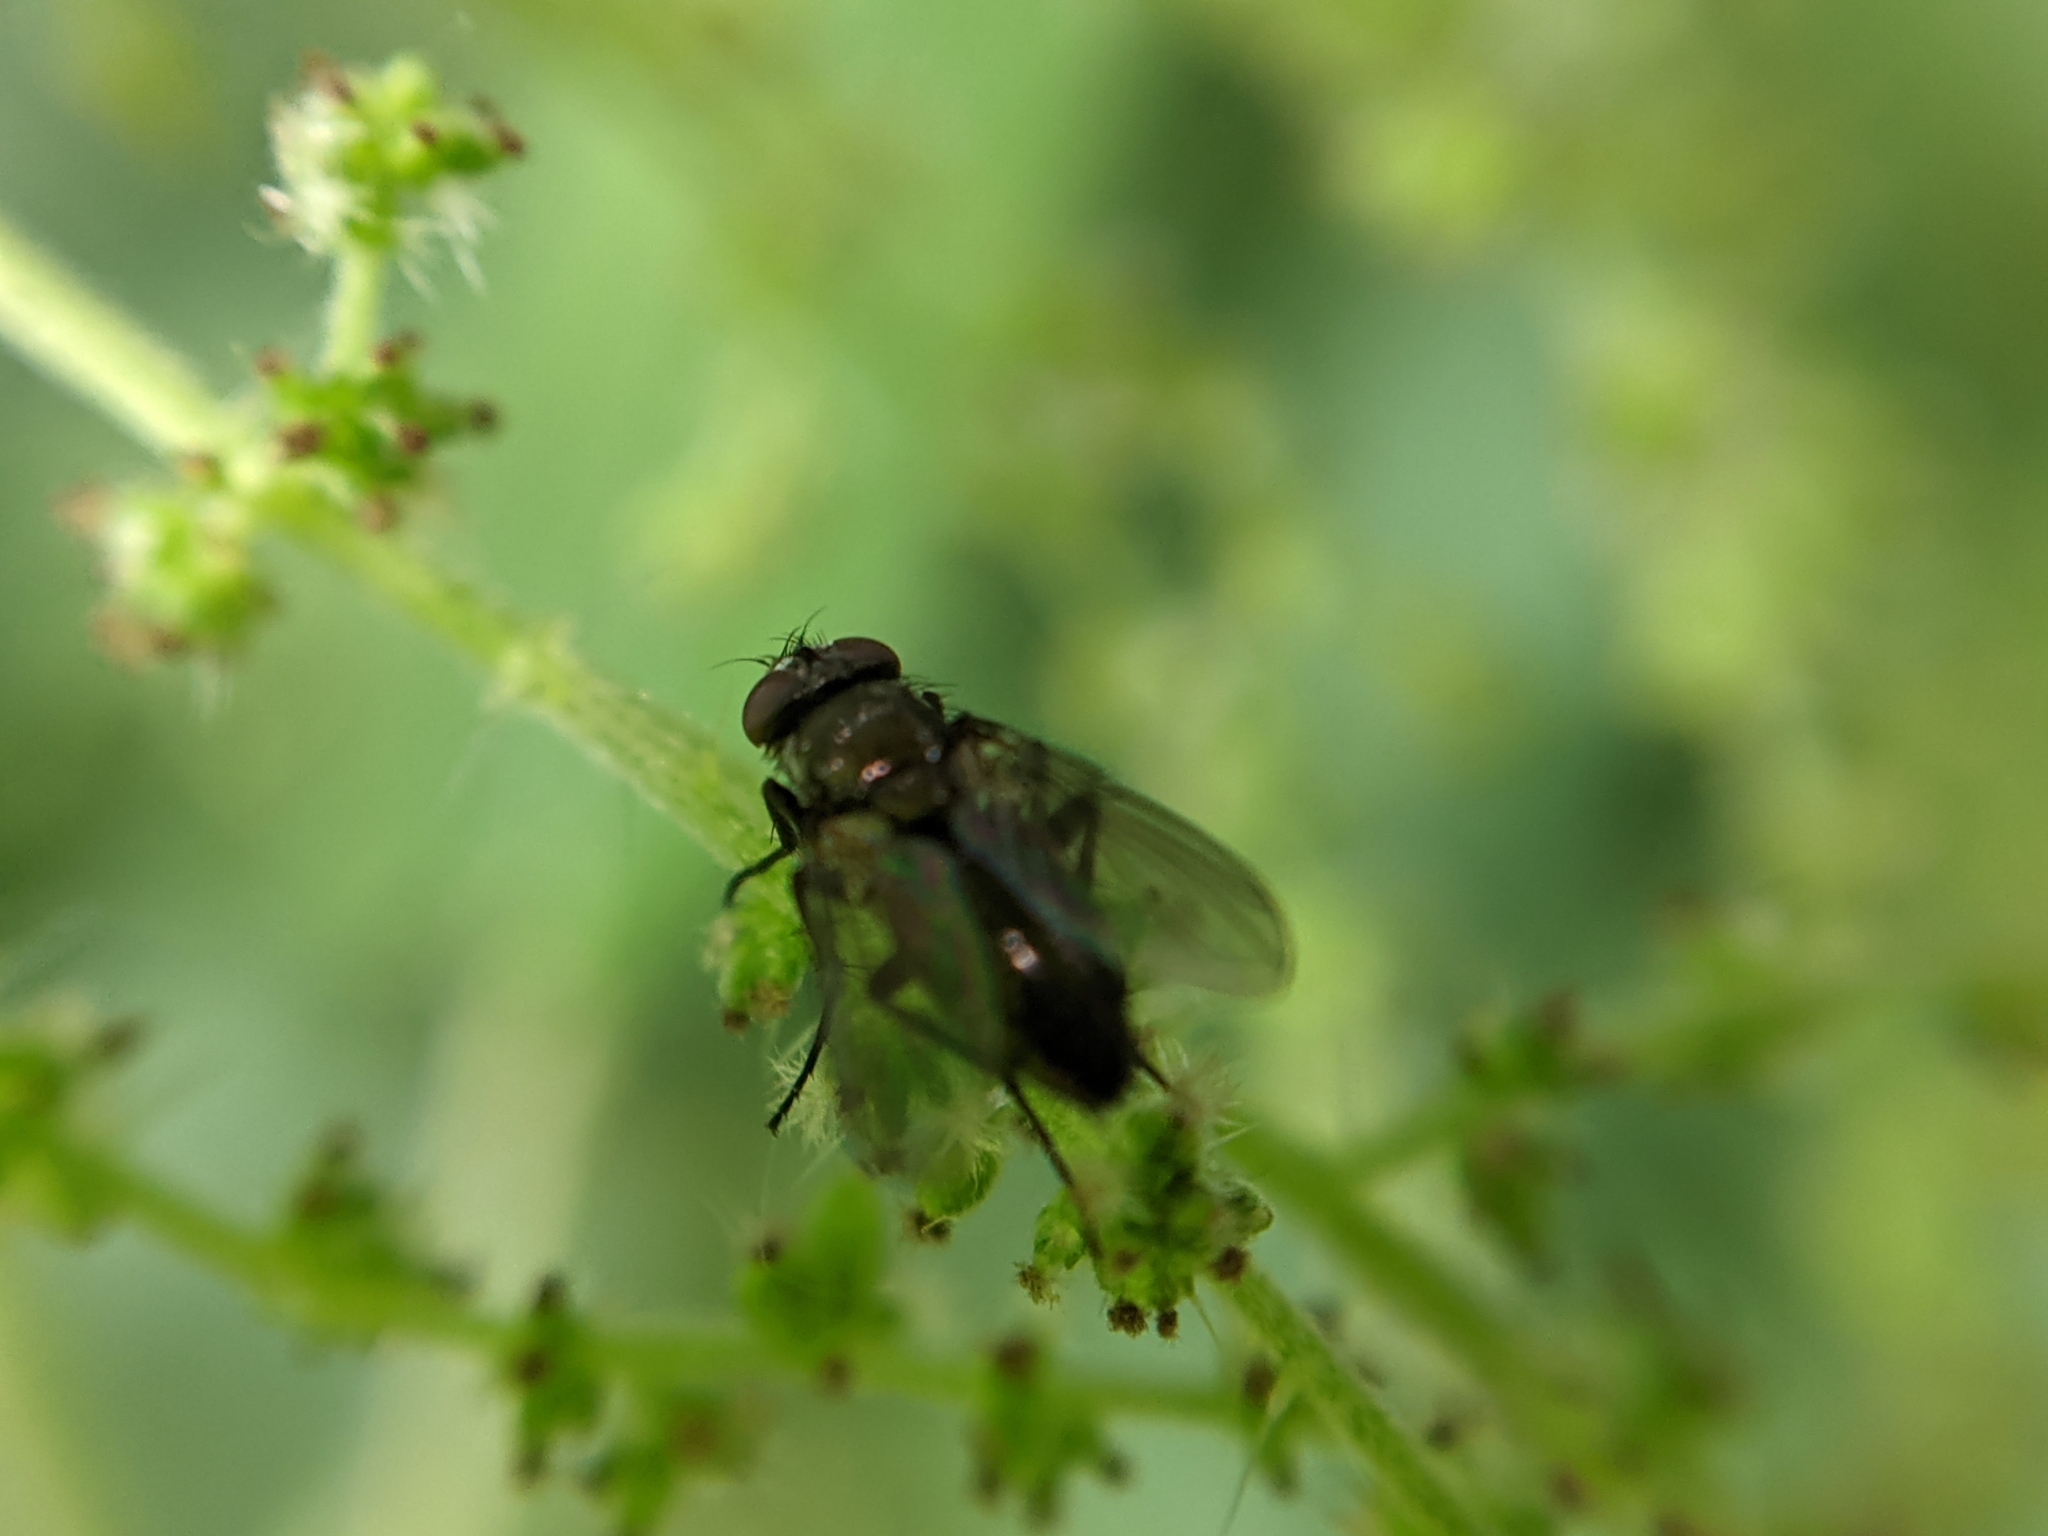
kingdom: Animalia
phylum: Arthropoda
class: Insecta
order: Diptera
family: Calliphoridae
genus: Rhinophora
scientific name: Rhinophora lepida
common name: Pouting woodlouse-fly
